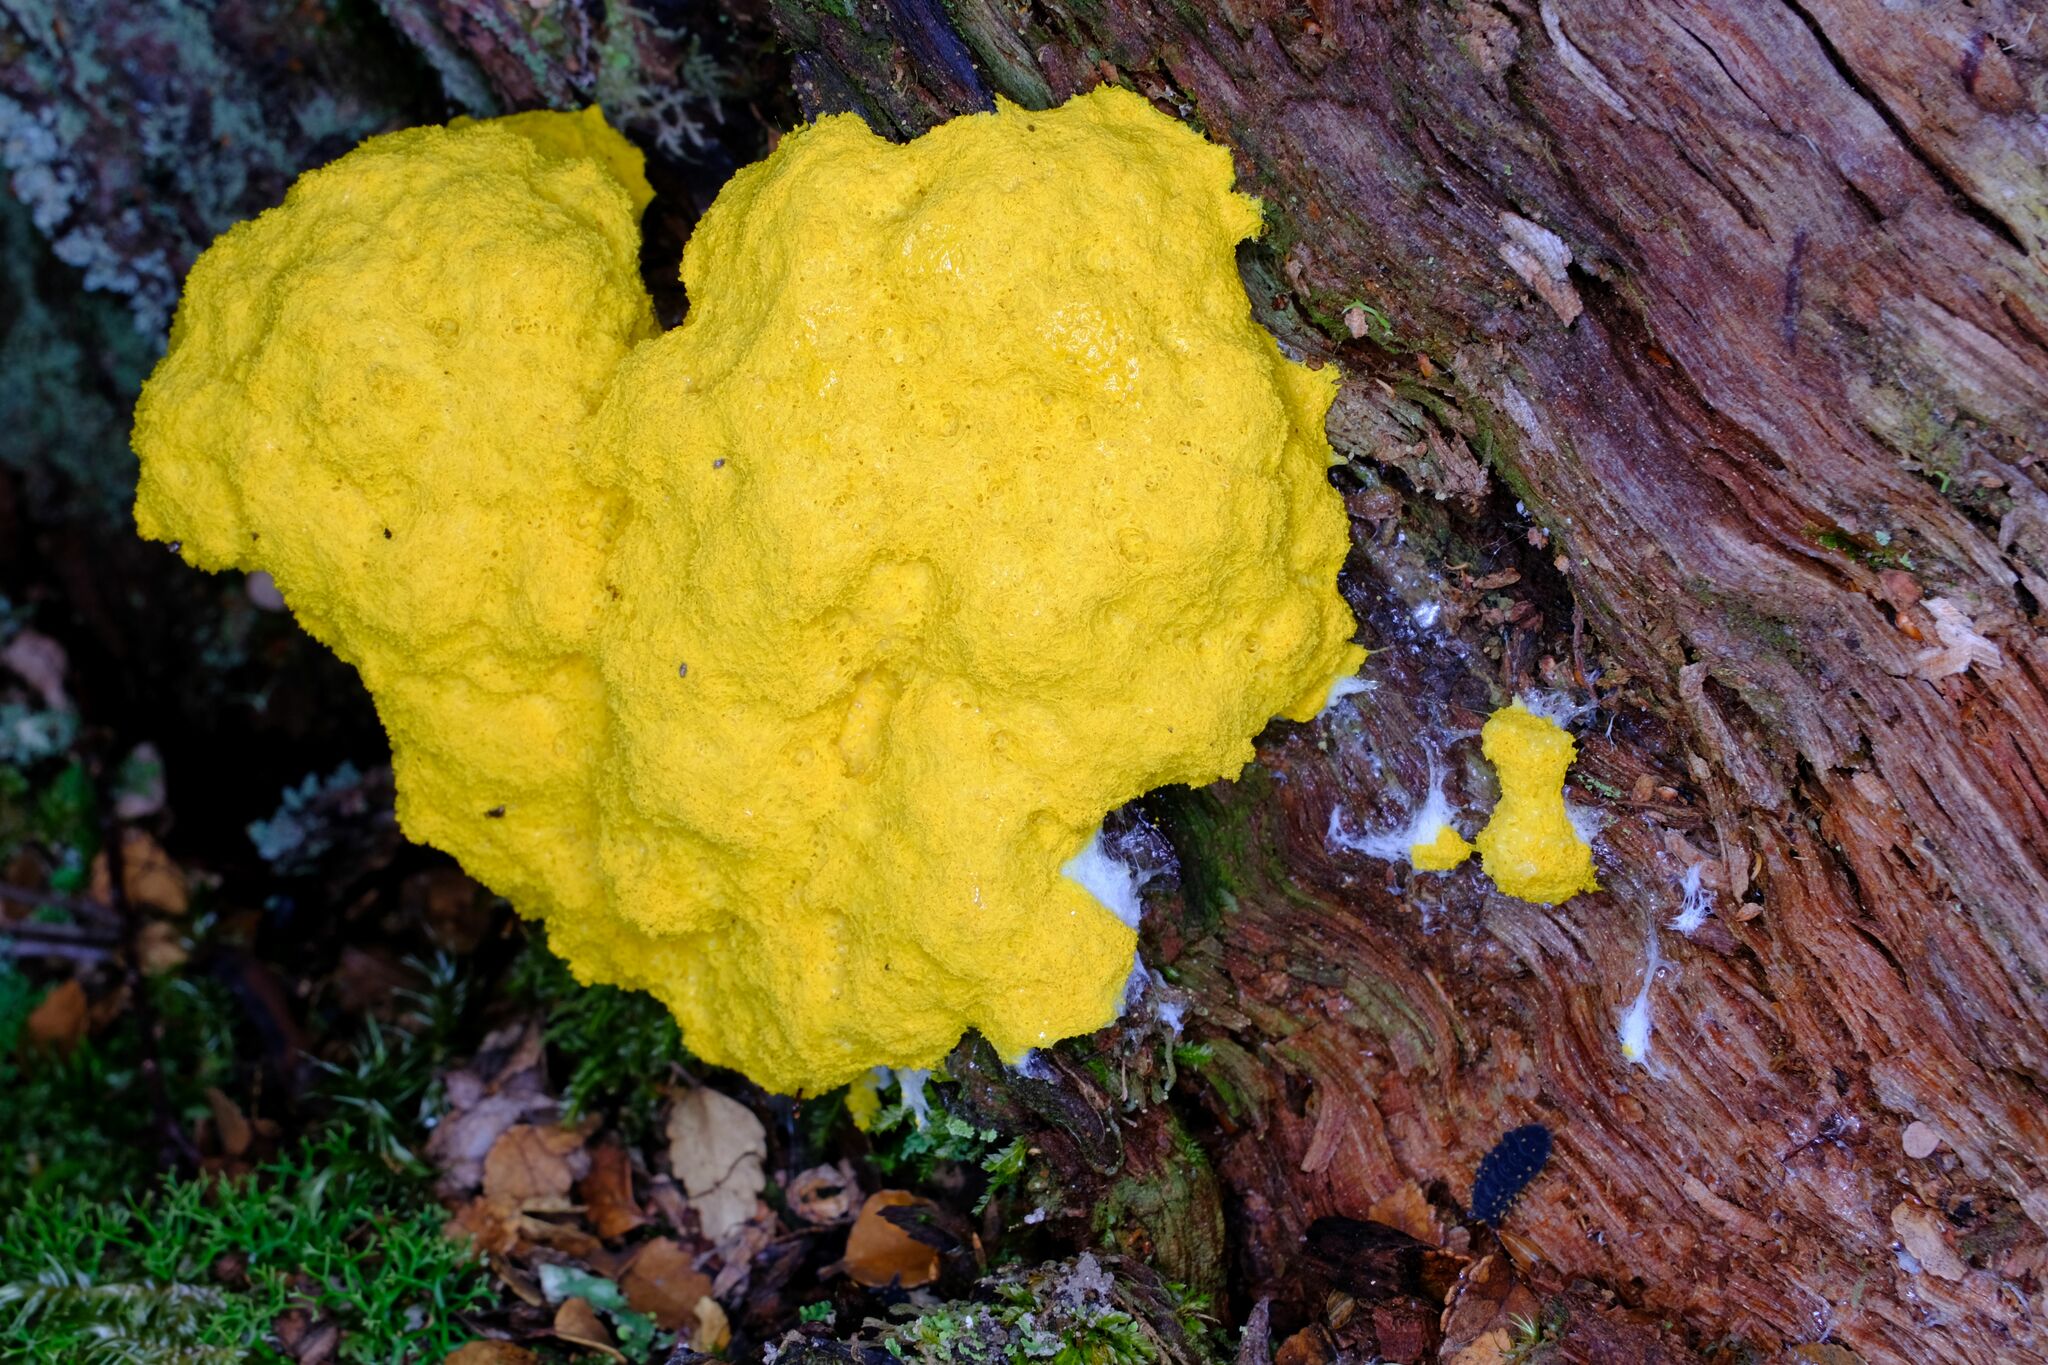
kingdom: Protozoa
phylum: Mycetozoa
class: Myxomycetes
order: Physarales
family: Physaraceae
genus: Fuligo
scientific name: Fuligo septica
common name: Dog vomit slime mold
